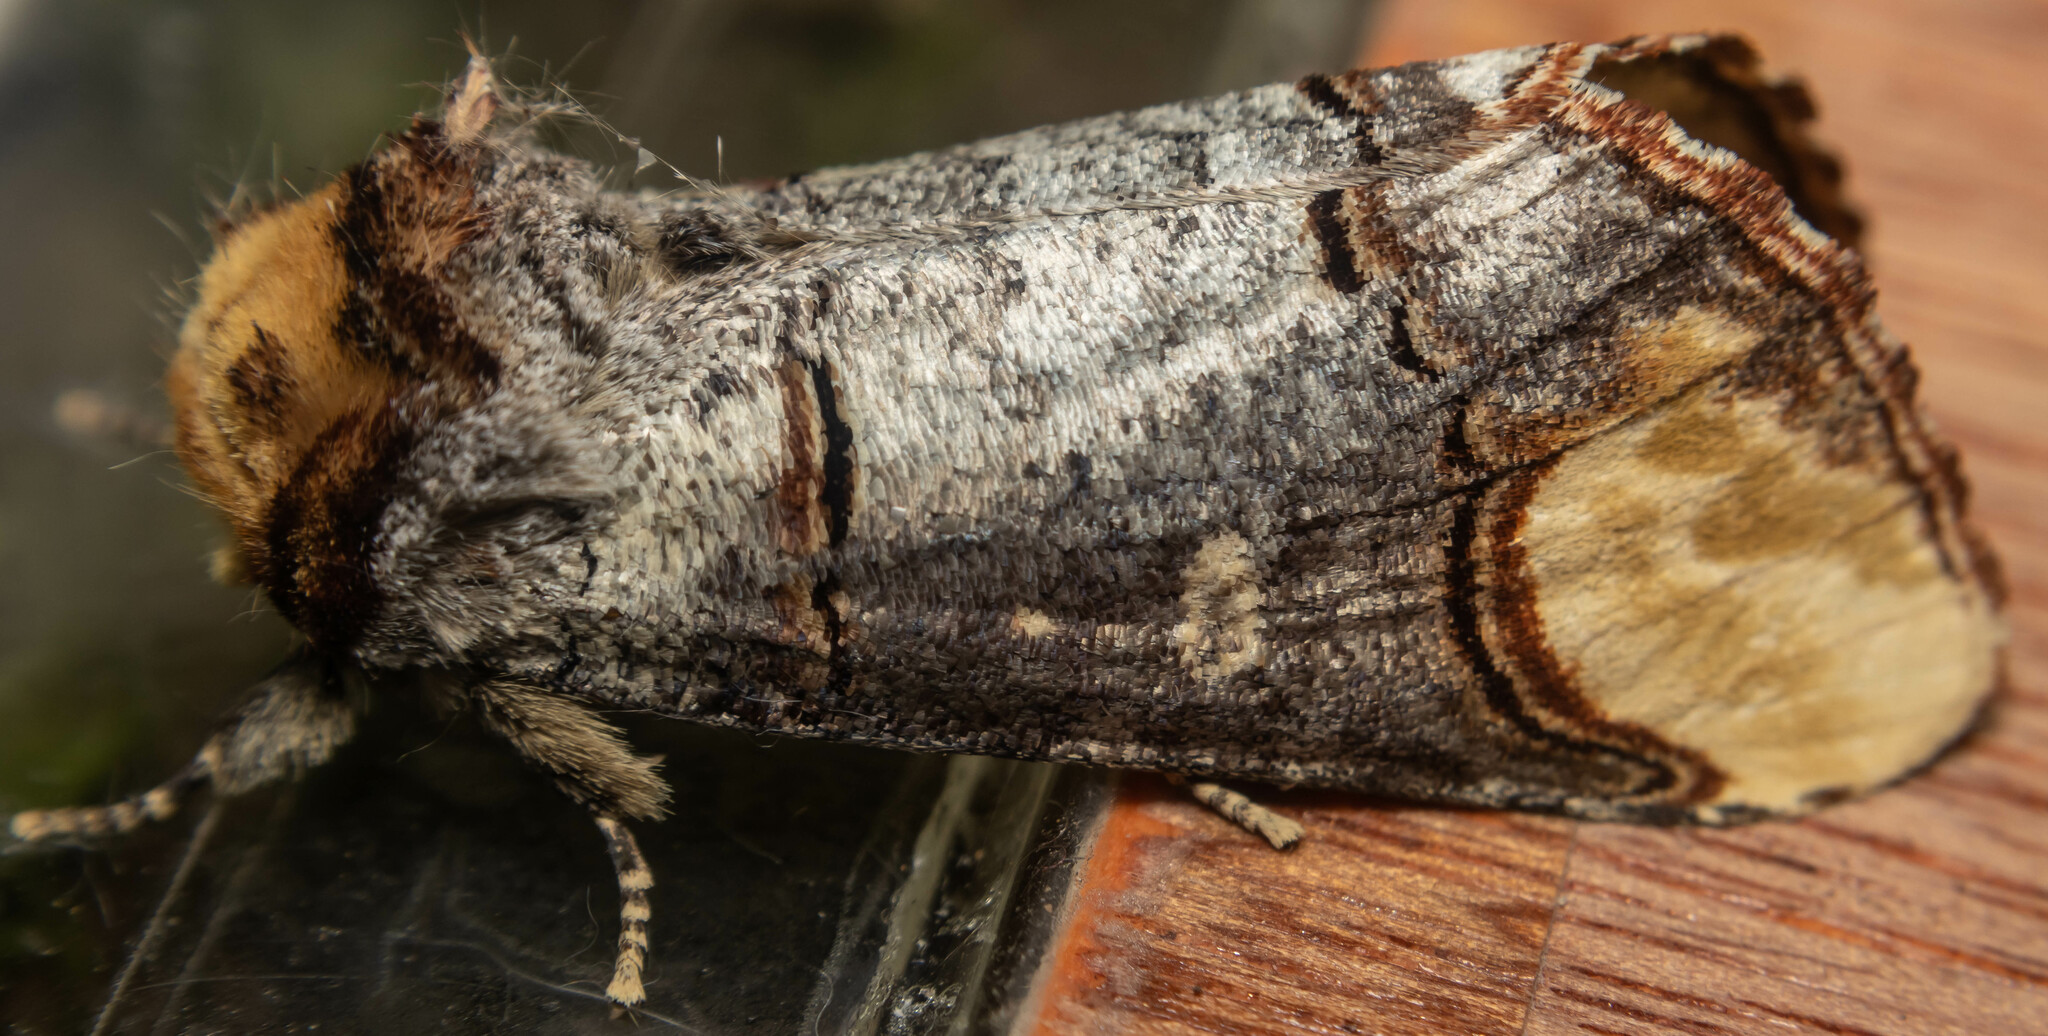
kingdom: Animalia
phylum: Arthropoda
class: Insecta
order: Lepidoptera
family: Notodontidae
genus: Phalera
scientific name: Phalera bucephala
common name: Buff-tip
